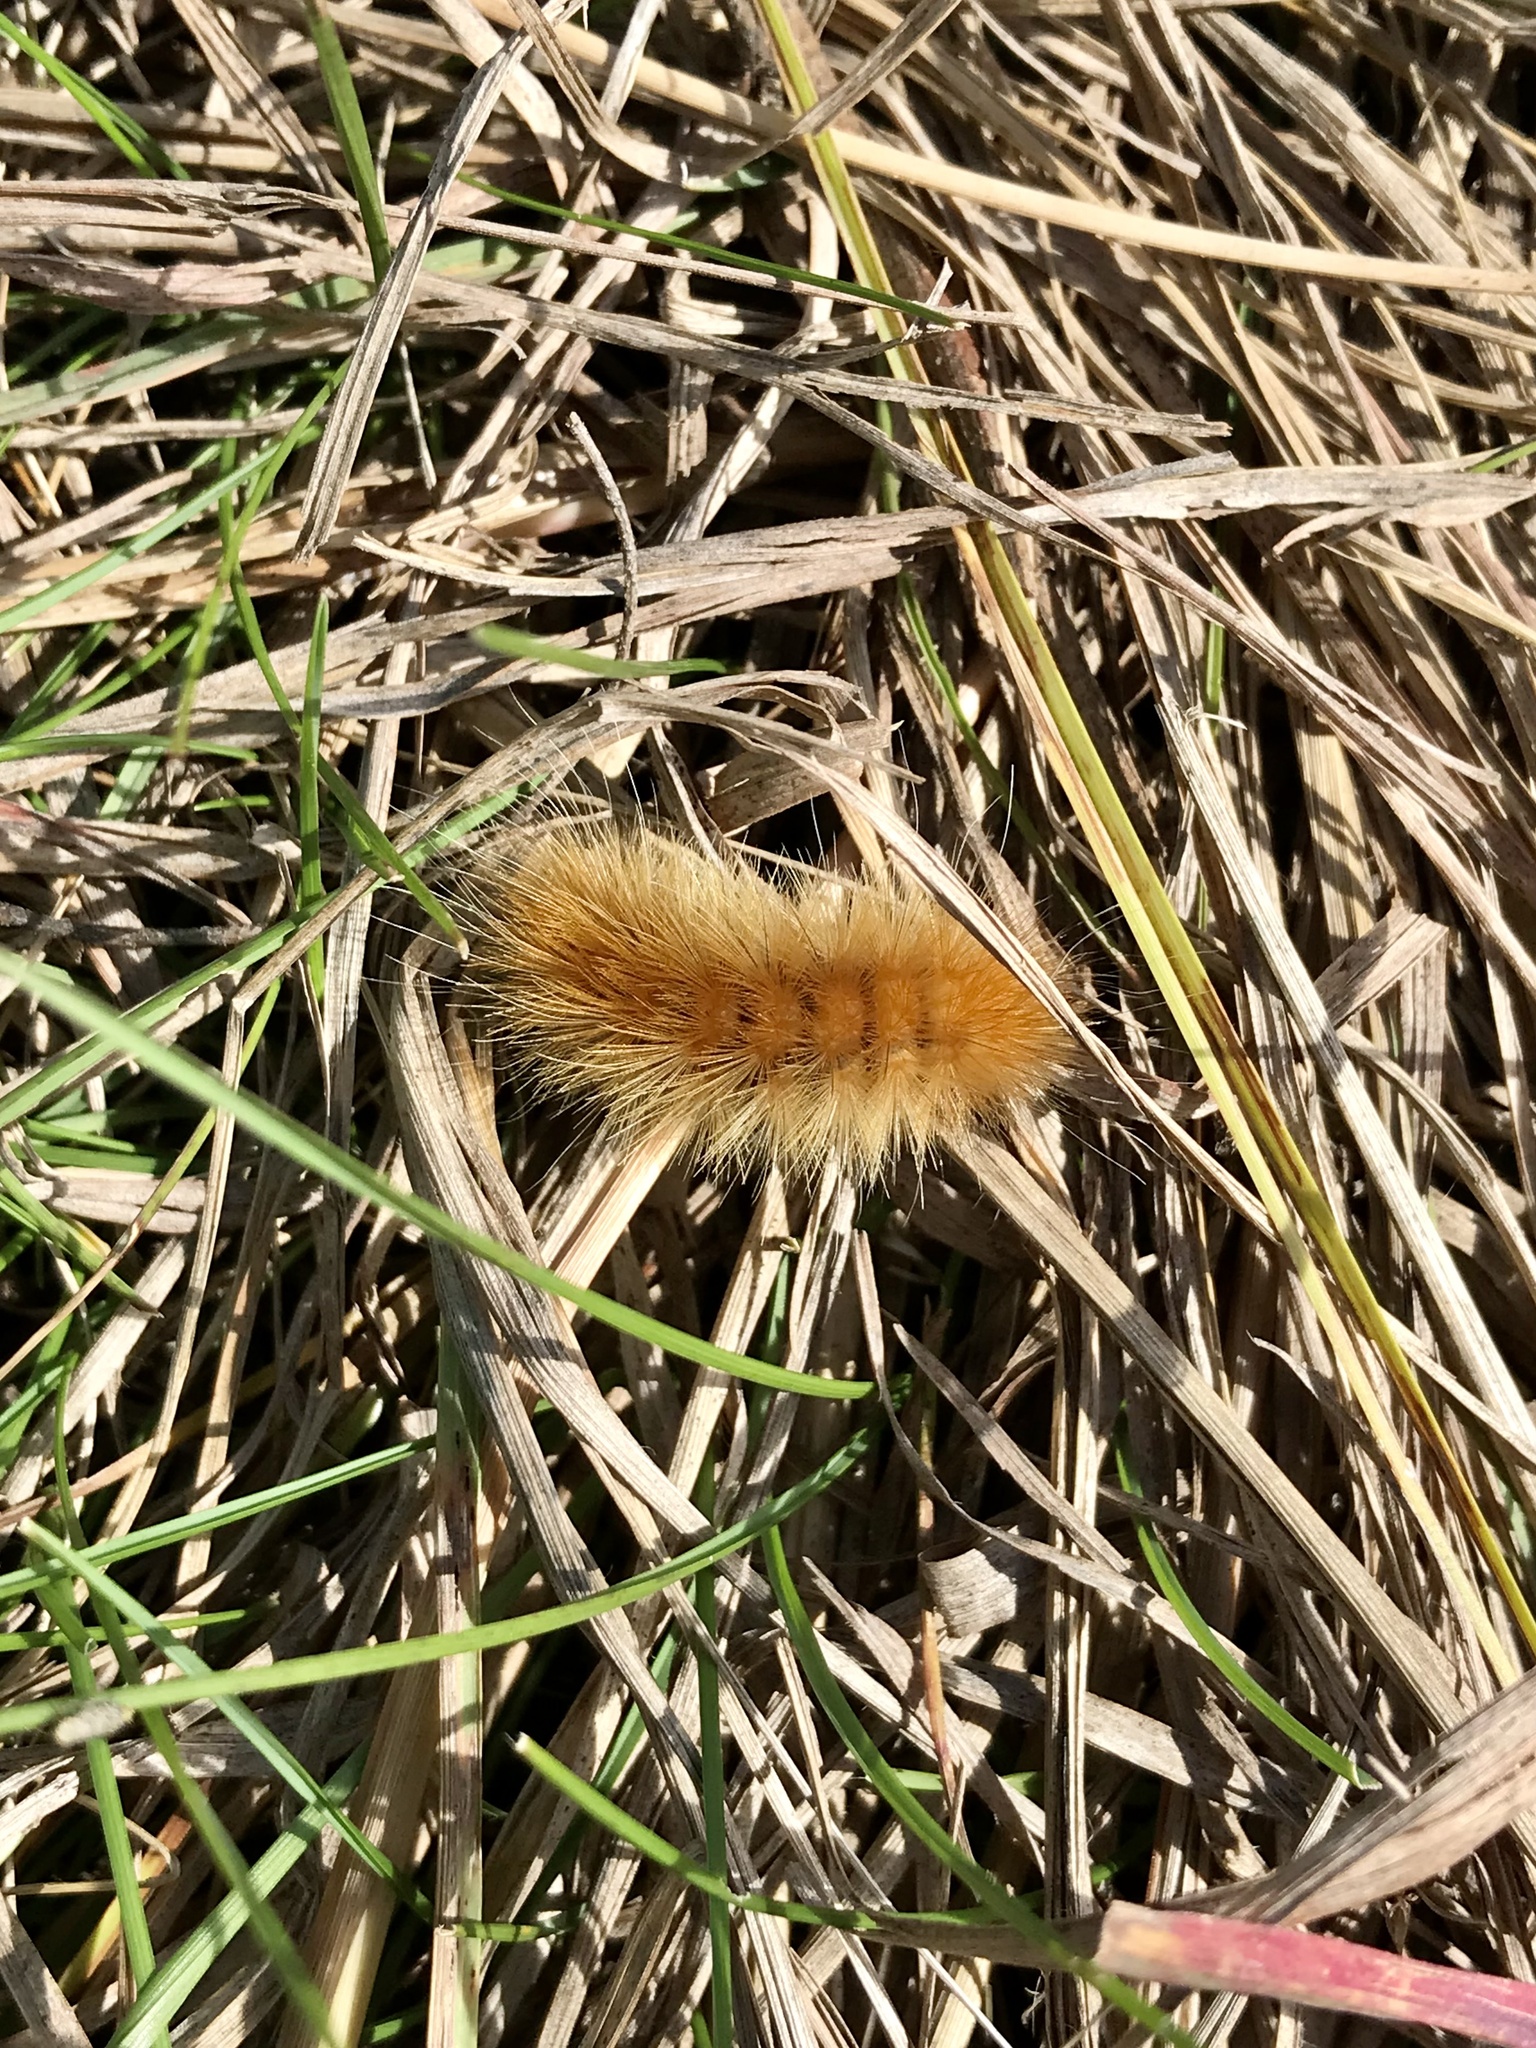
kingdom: Animalia
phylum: Arthropoda
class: Insecta
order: Lepidoptera
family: Erebidae
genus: Spilosoma
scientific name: Spilosoma virginica
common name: Virginia tiger moth
